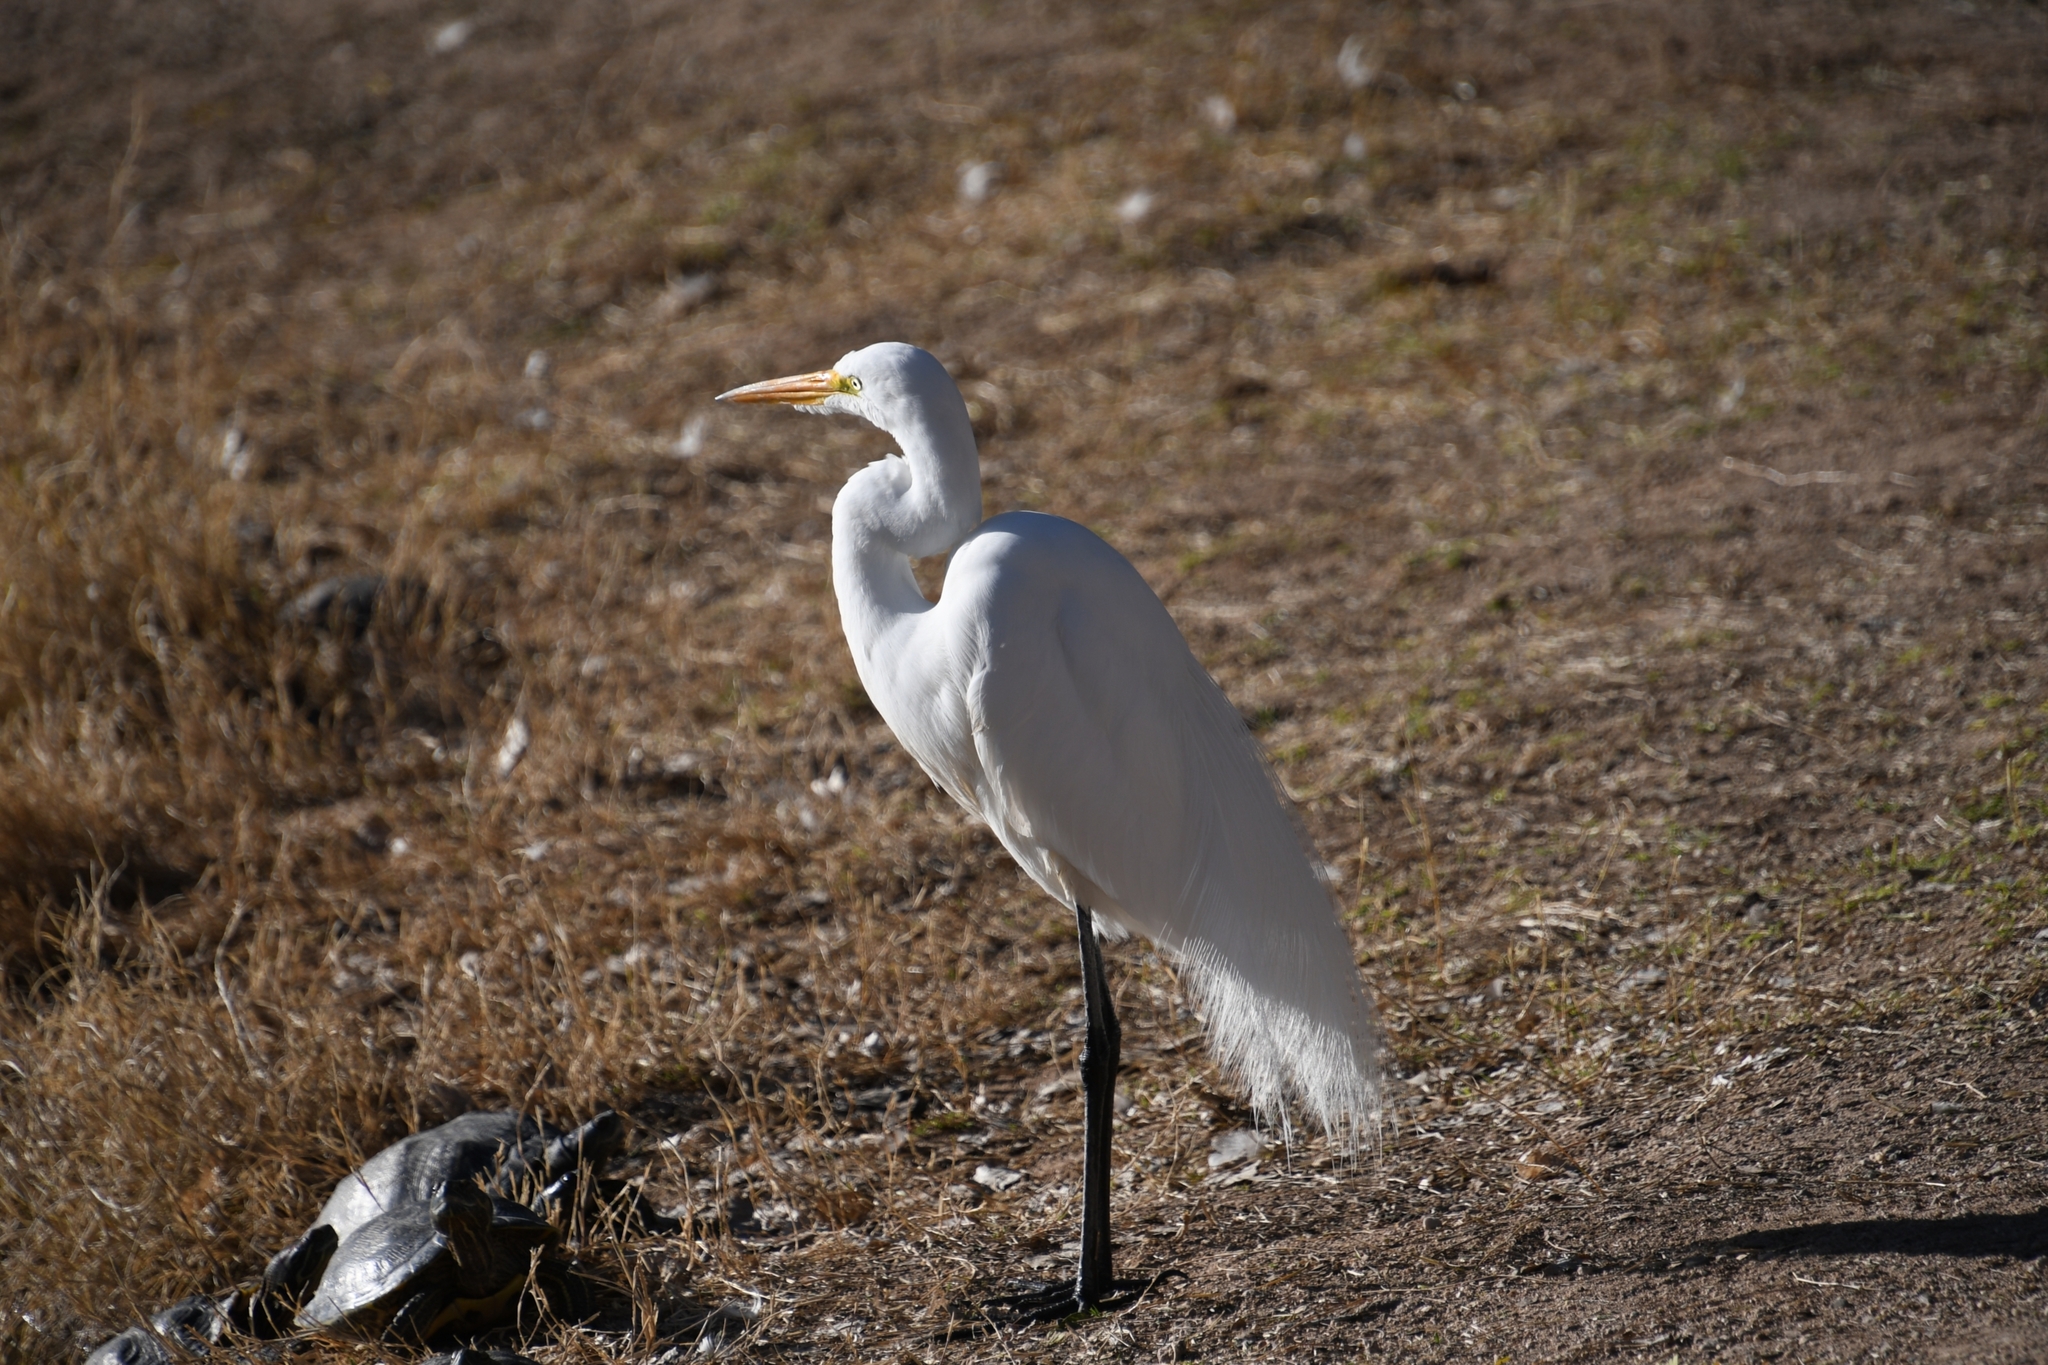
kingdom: Animalia
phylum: Chordata
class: Aves
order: Pelecaniformes
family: Ardeidae
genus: Ardea
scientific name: Ardea alba
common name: Great egret
